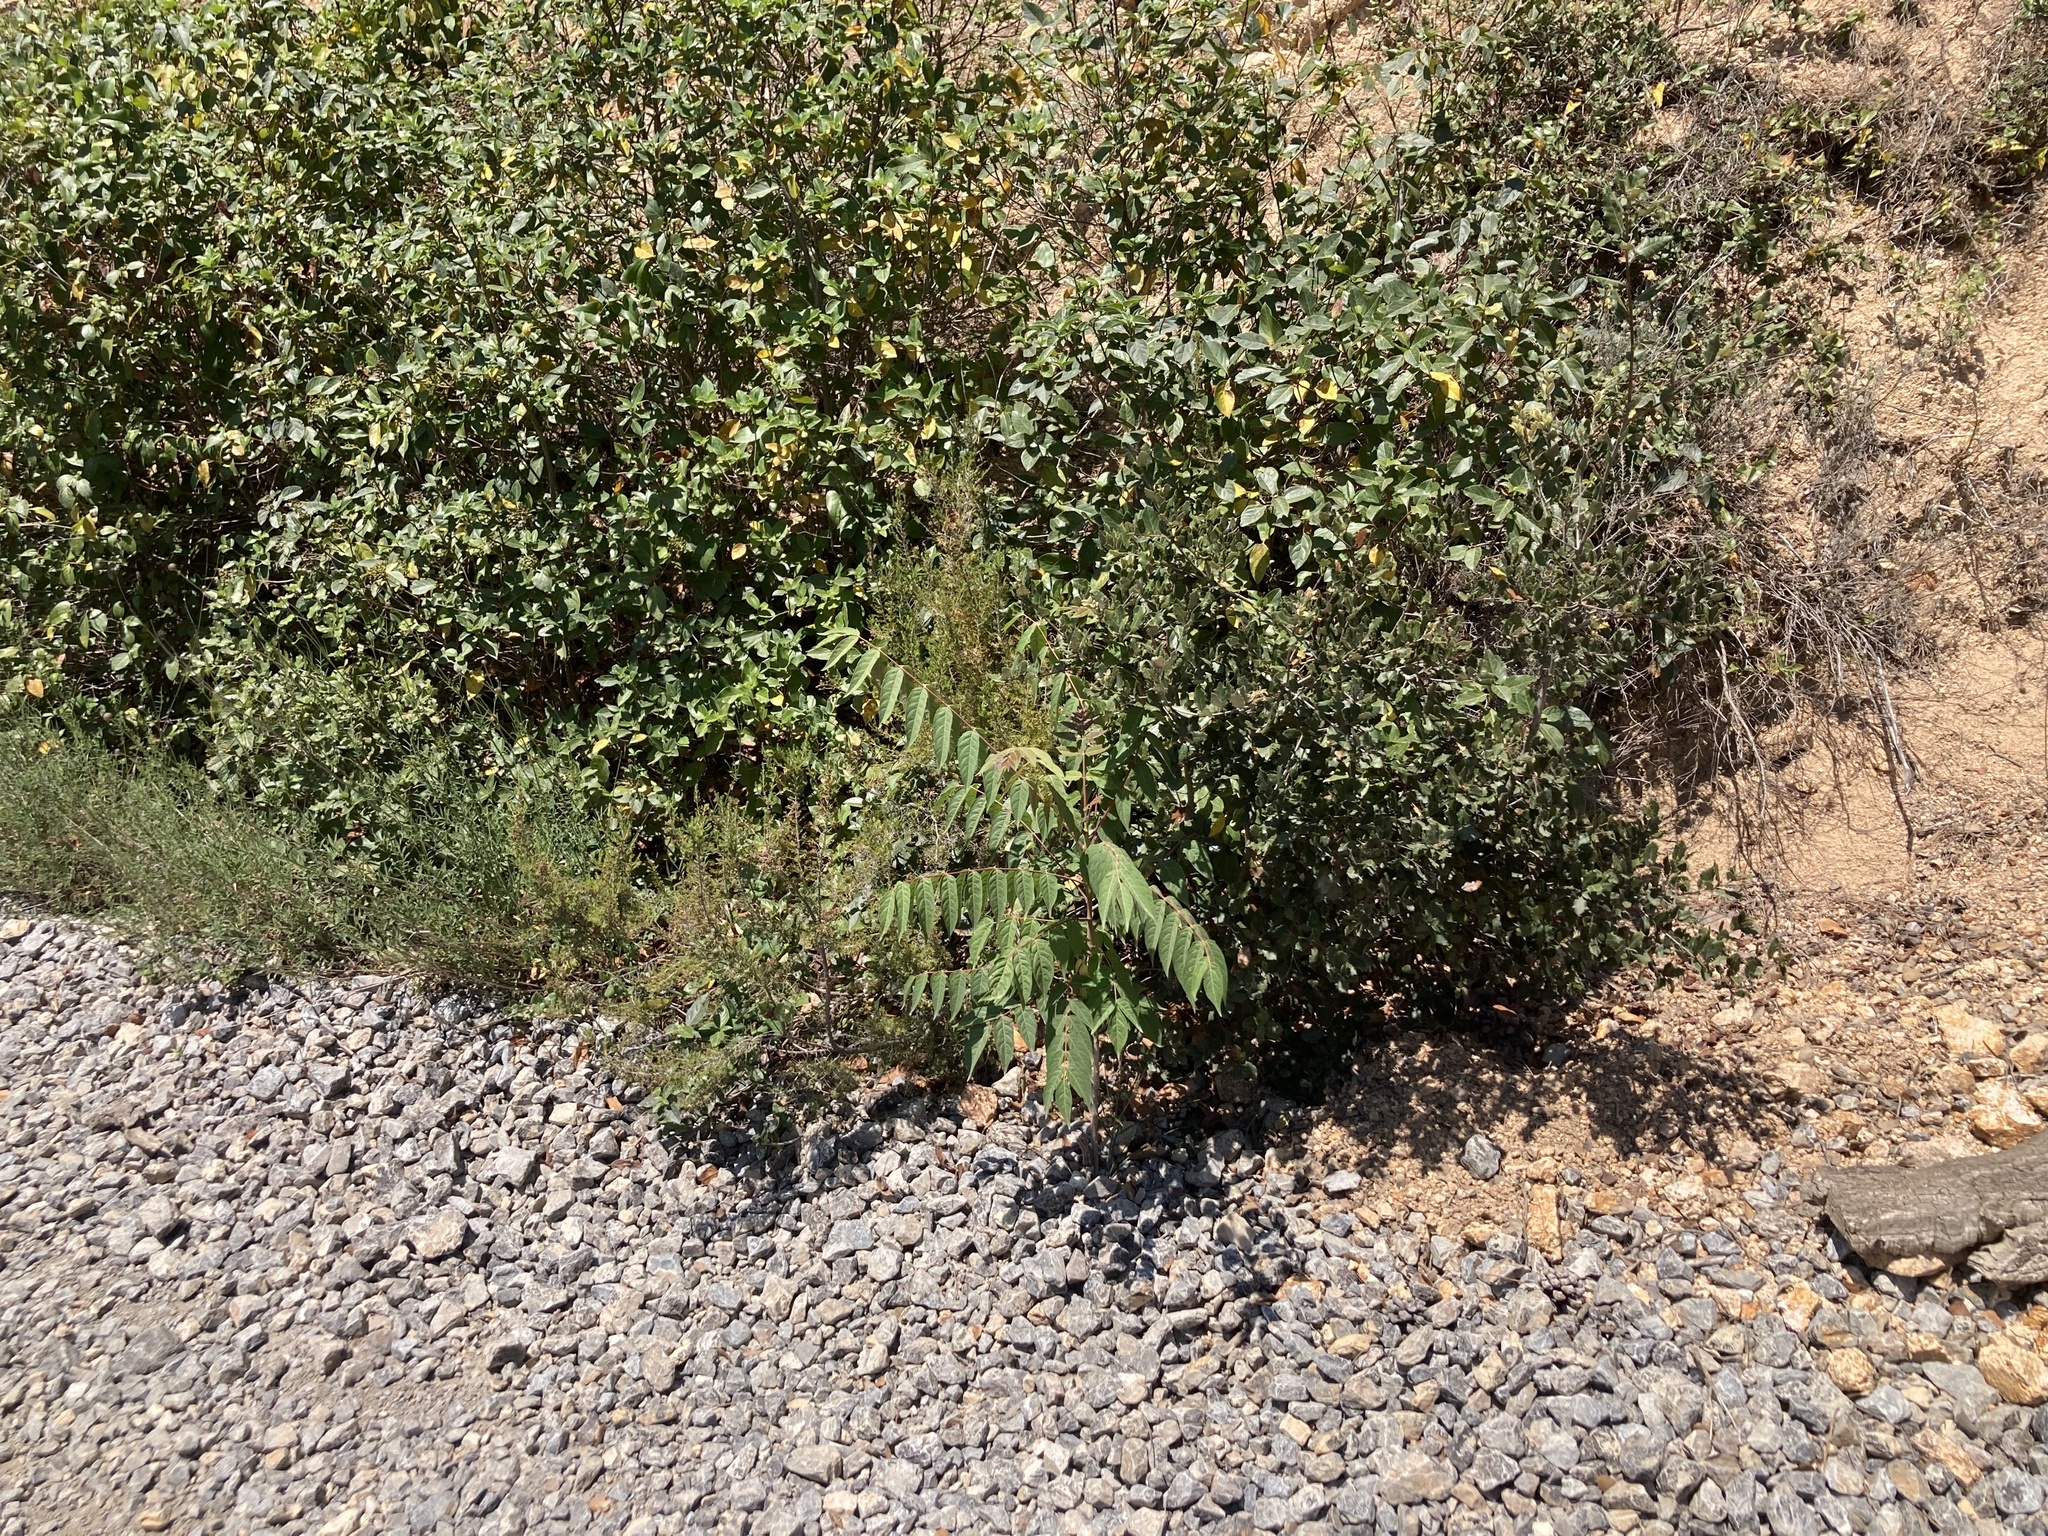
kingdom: Plantae
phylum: Tracheophyta
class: Magnoliopsida
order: Sapindales
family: Simaroubaceae
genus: Ailanthus
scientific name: Ailanthus altissima
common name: Tree-of-heaven
